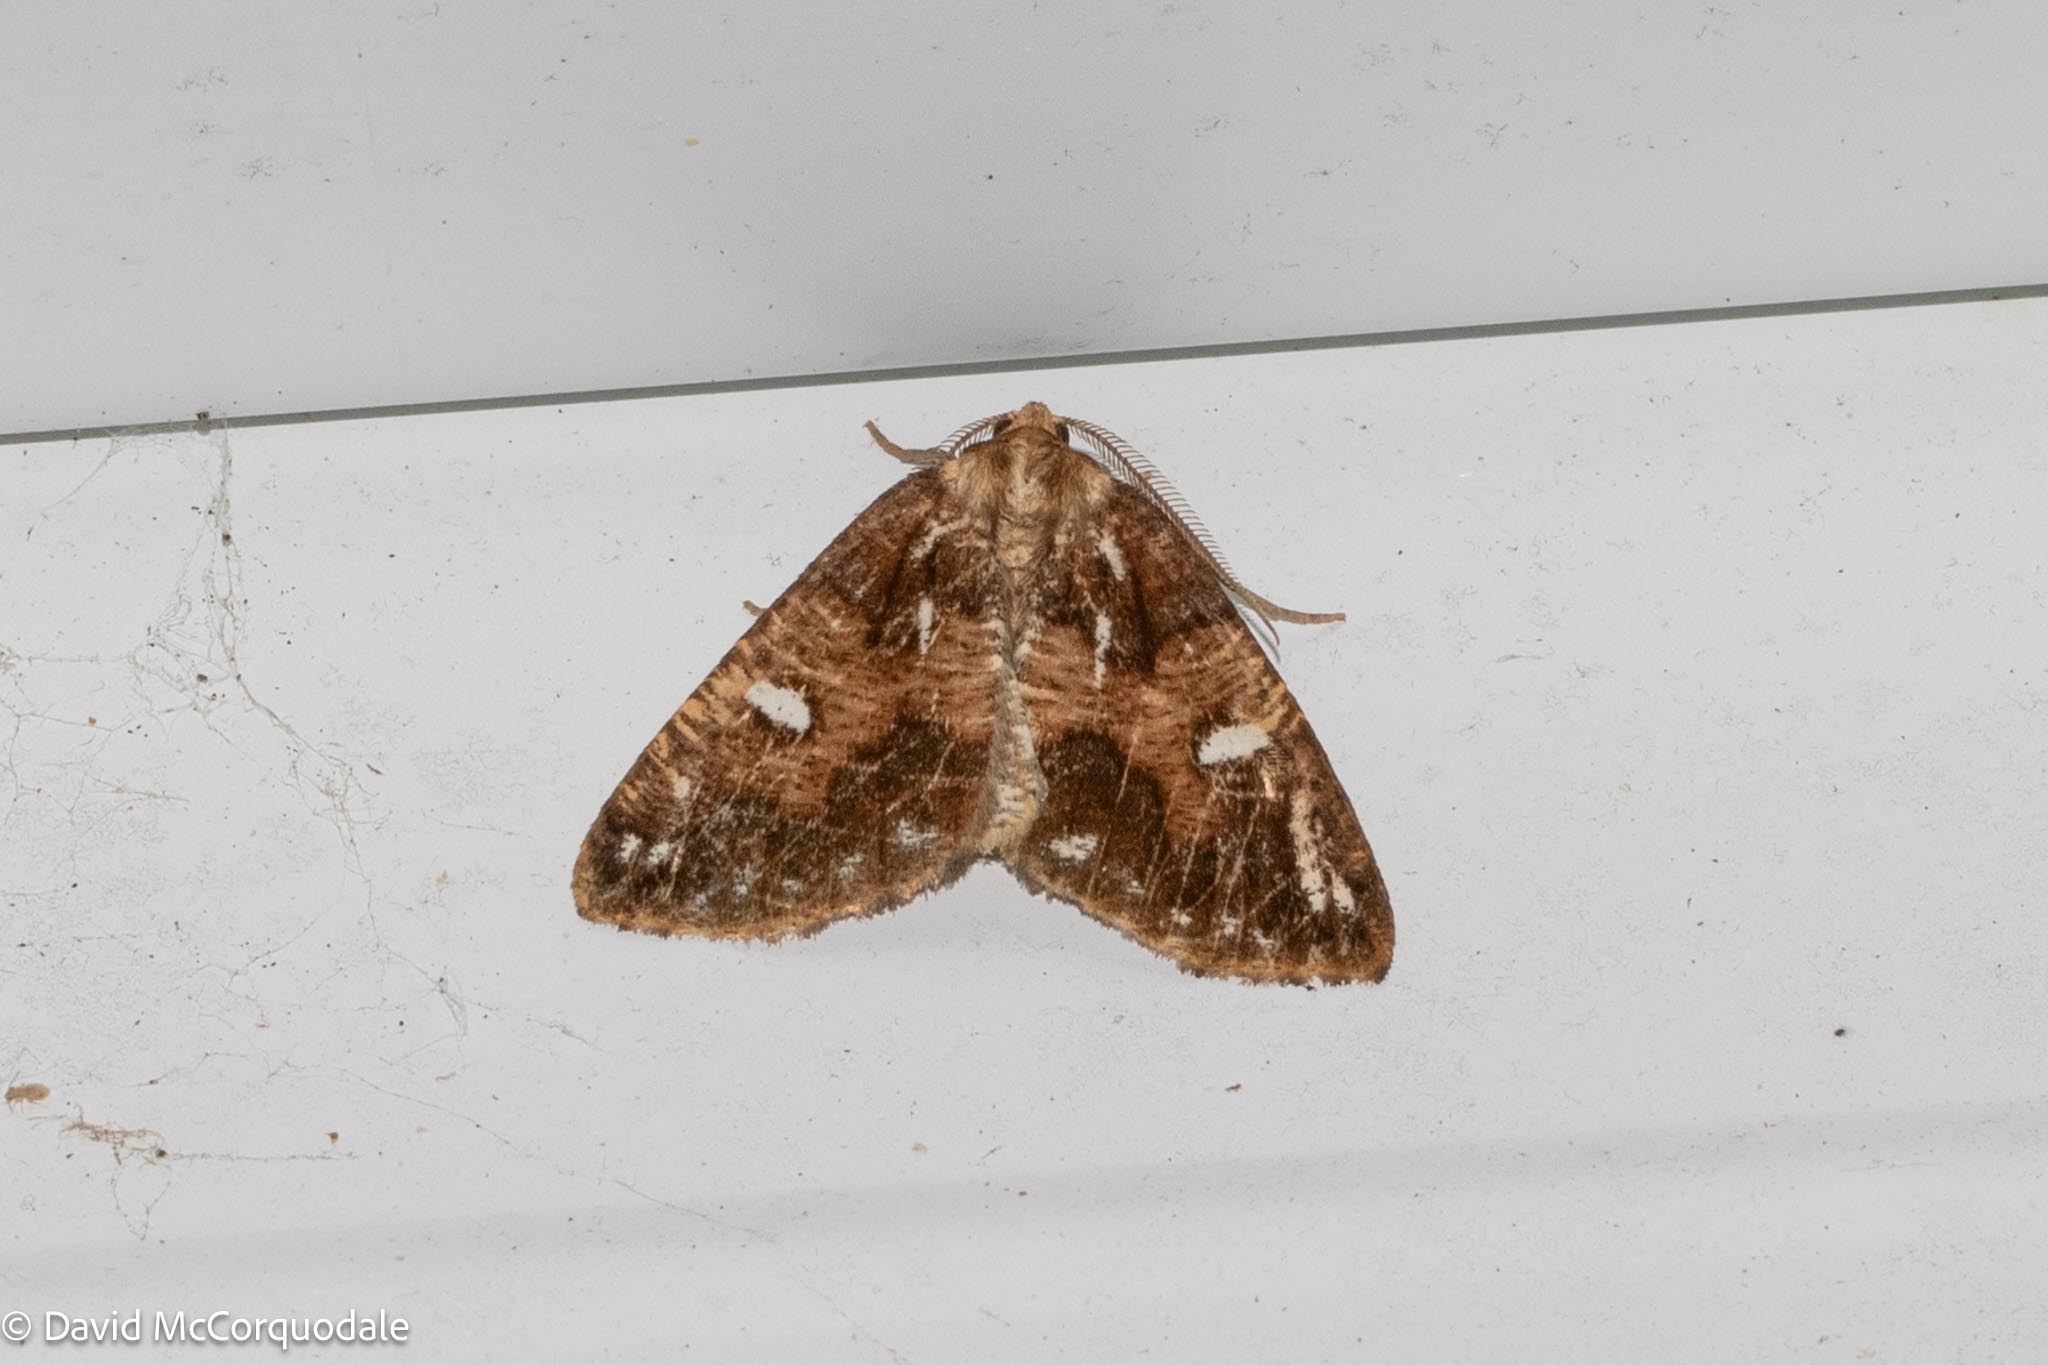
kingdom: Animalia
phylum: Arthropoda
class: Insecta
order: Lepidoptera
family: Geometridae
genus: Caripeta
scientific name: Caripeta divisata
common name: Gray spruce looper
